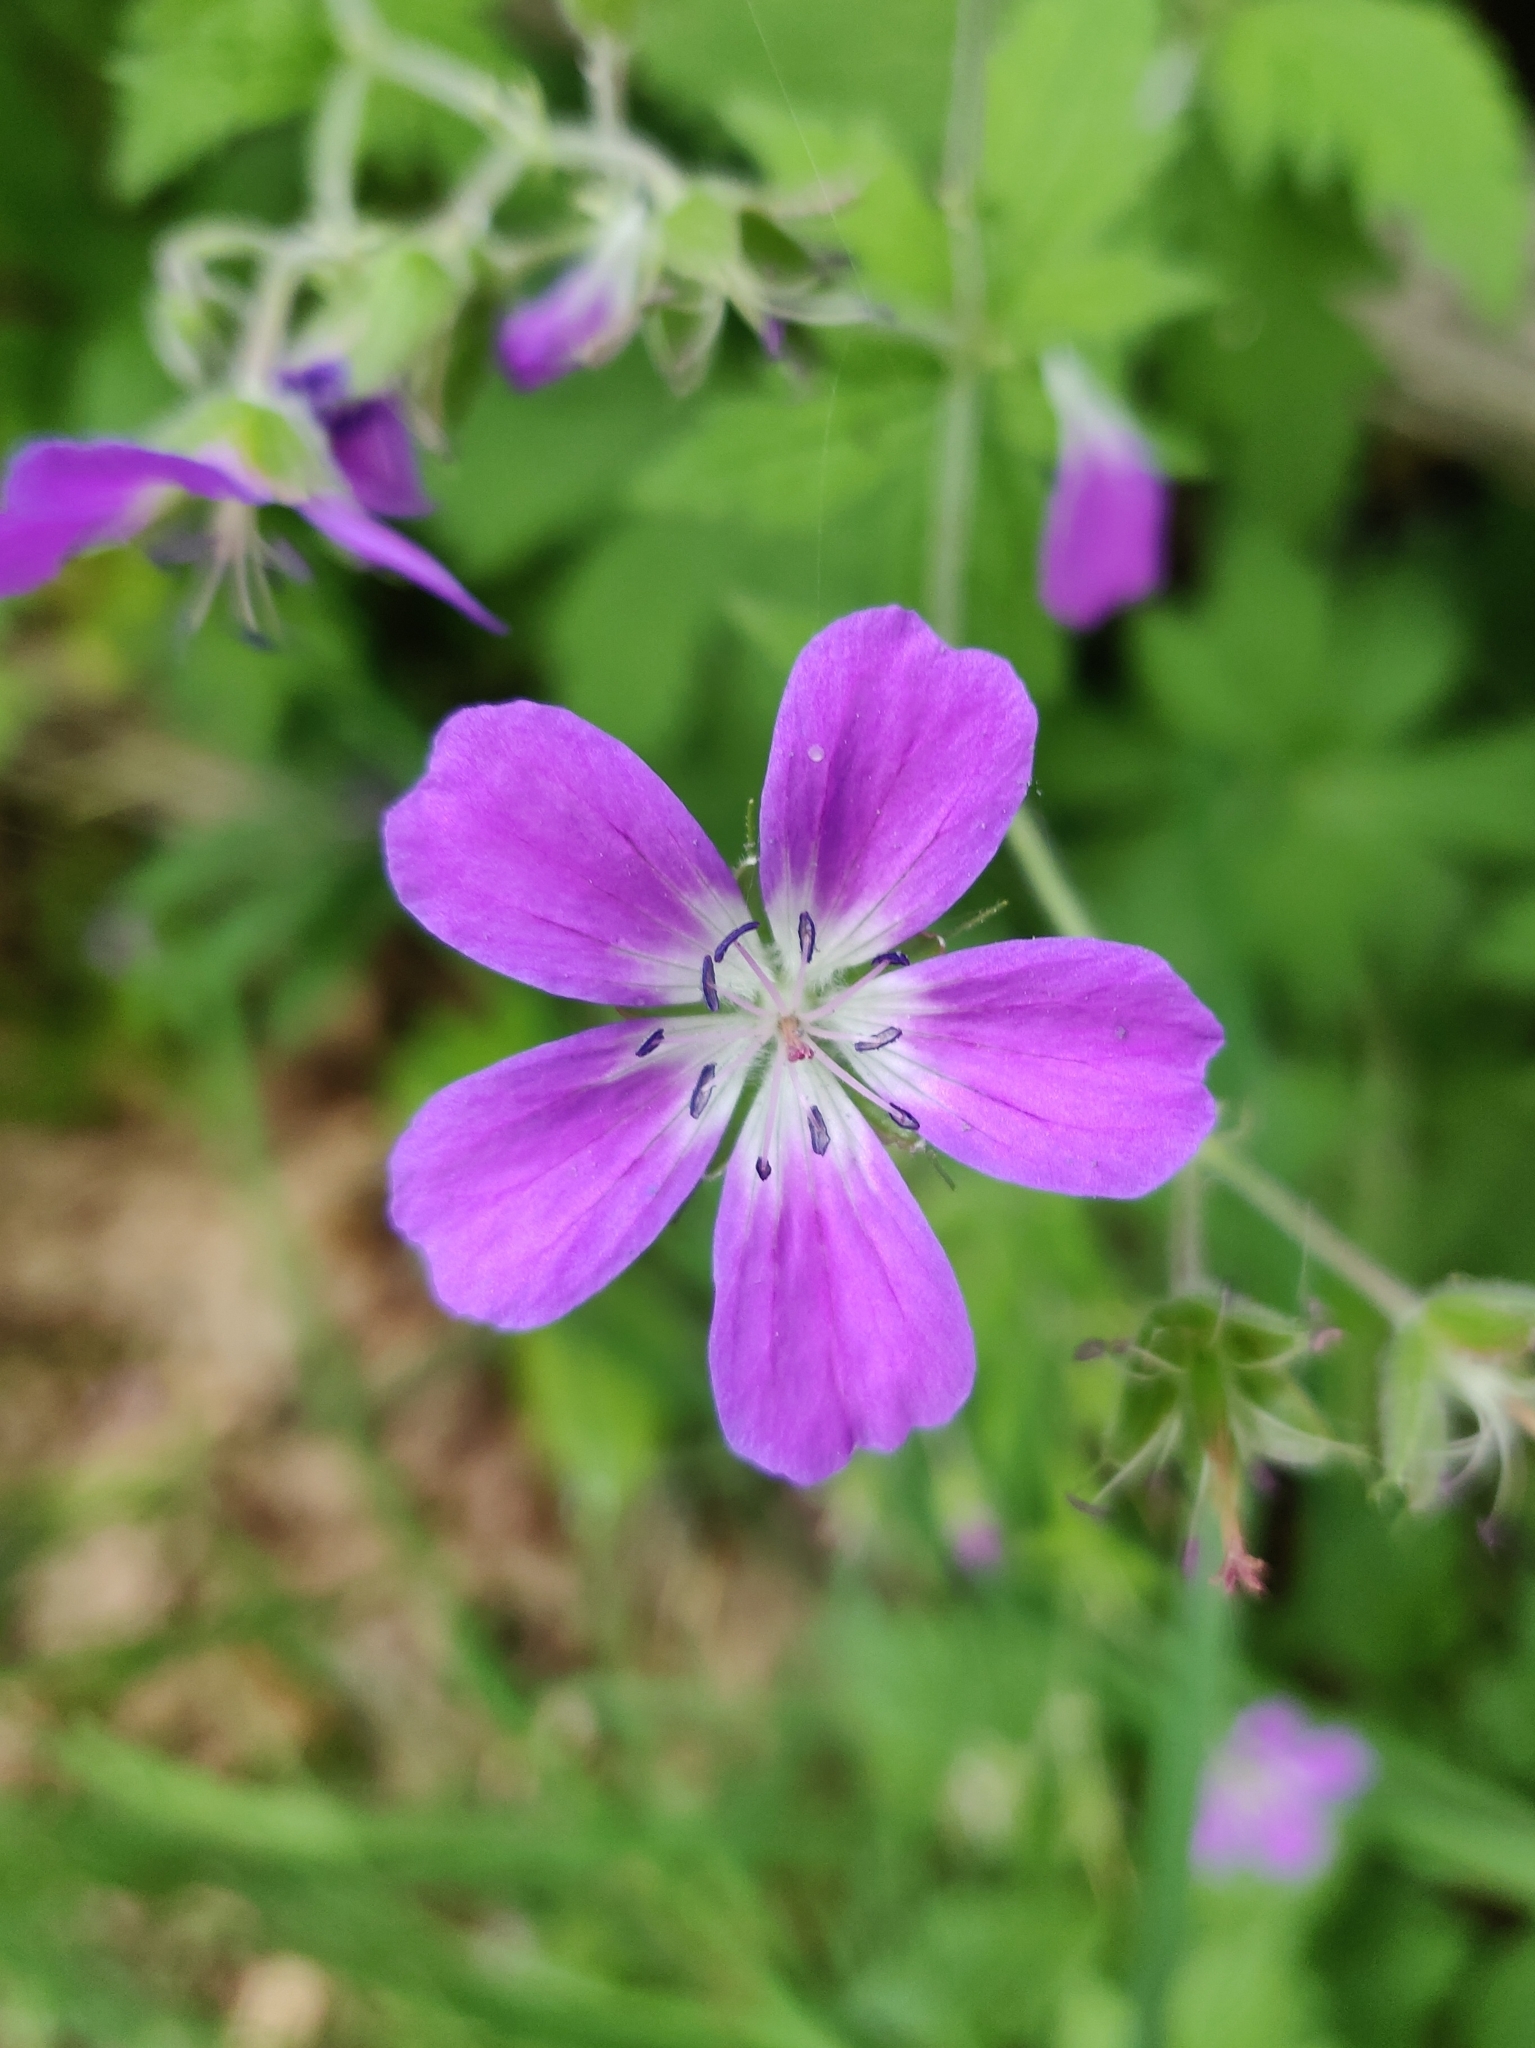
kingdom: Plantae
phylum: Tracheophyta
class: Magnoliopsida
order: Geraniales
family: Geraniaceae
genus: Geranium
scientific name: Geranium sylvaticum
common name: Wood crane's-bill
